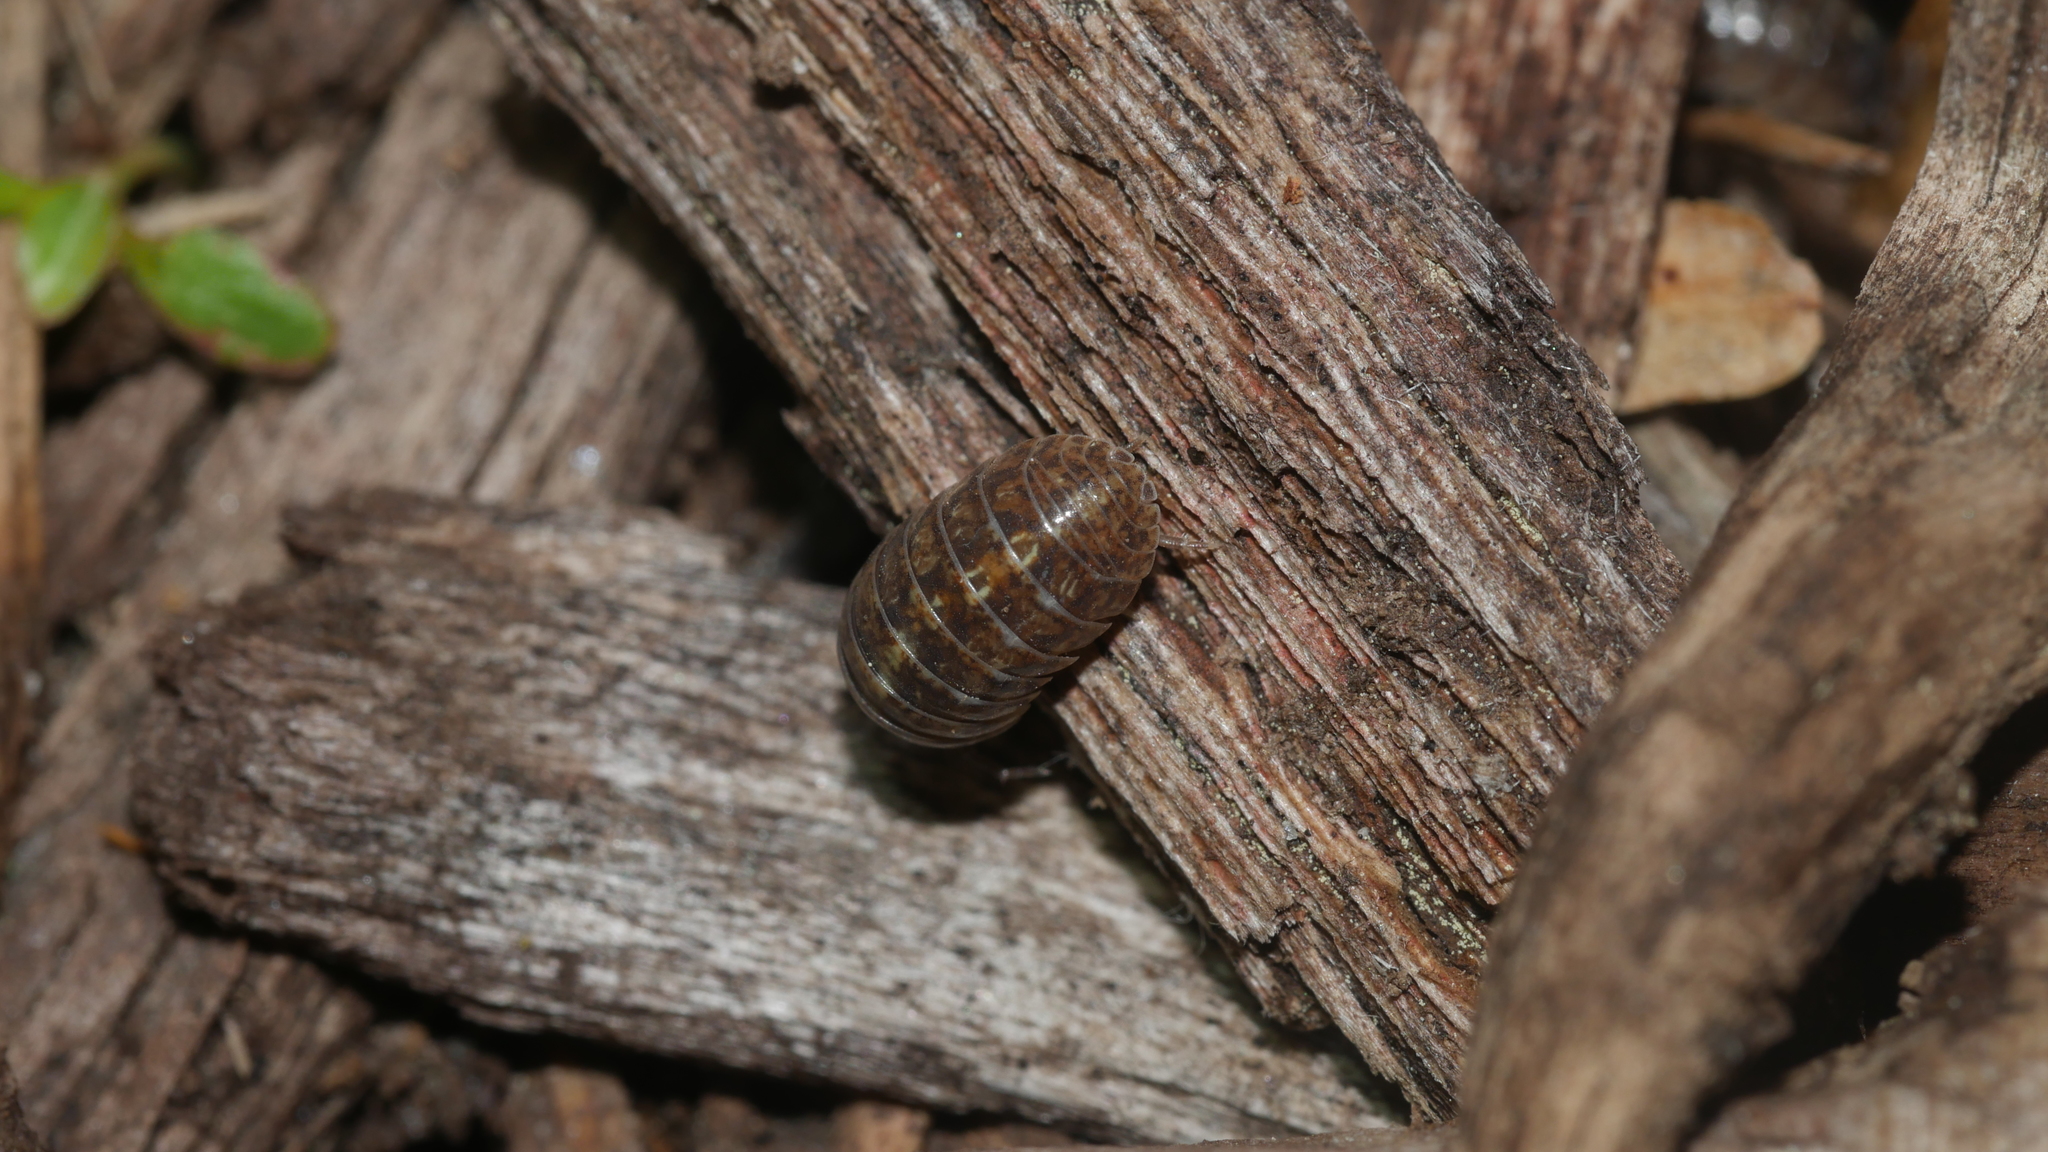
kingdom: Animalia
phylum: Arthropoda
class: Malacostraca
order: Isopoda
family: Armadillidiidae
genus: Armadillidium
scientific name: Armadillidium vulgare
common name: Common pill woodlouse
